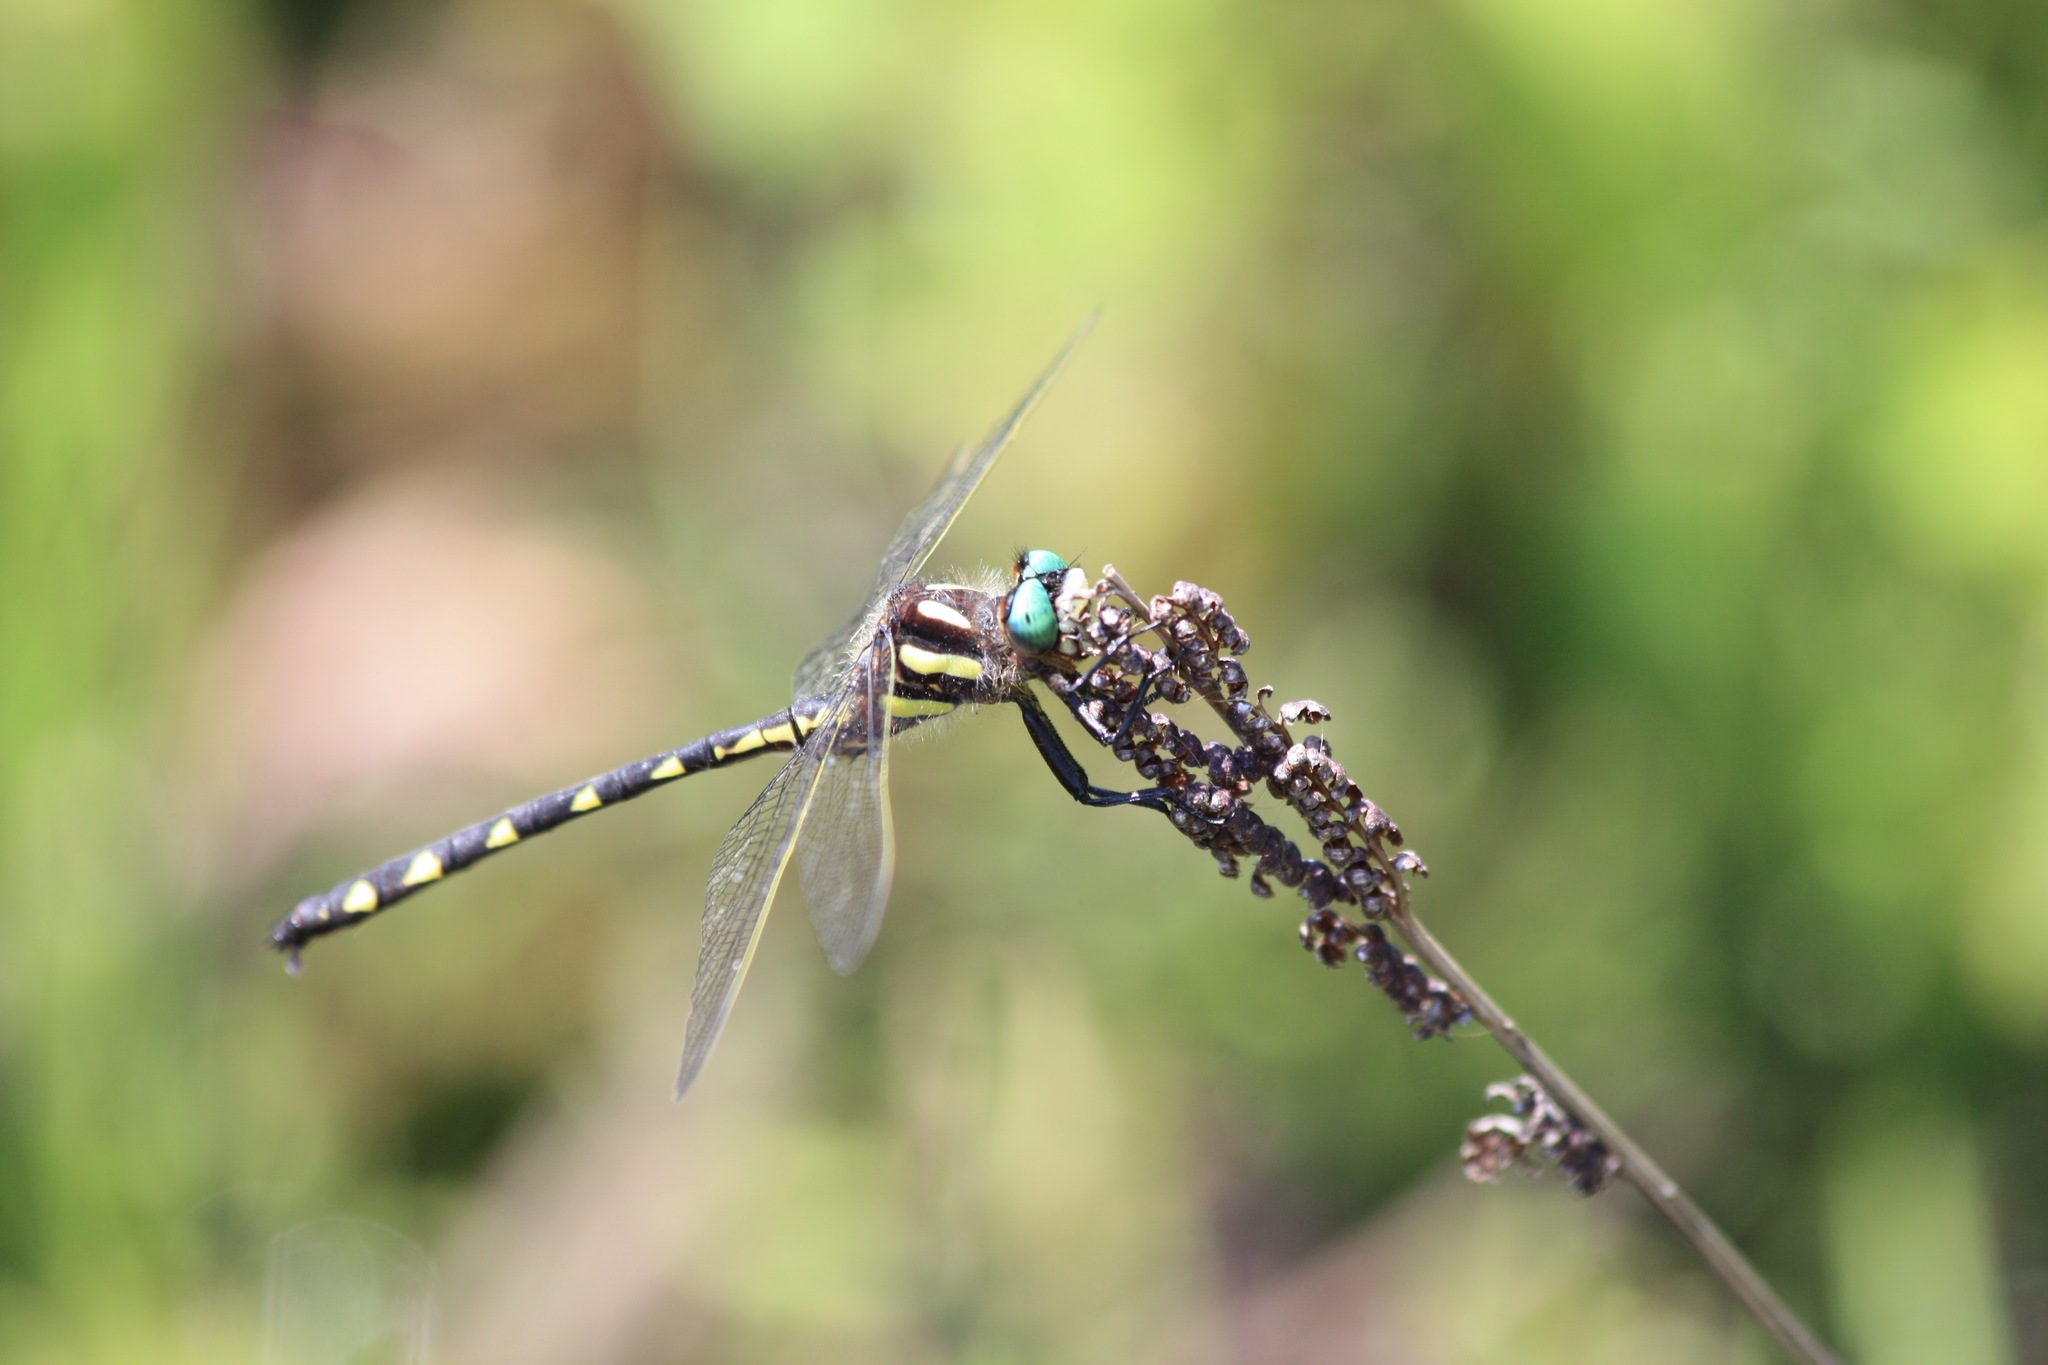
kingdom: Animalia
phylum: Arthropoda
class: Insecta
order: Odonata
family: Cordulegastridae
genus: Cordulegaster
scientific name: Cordulegaster diastatops
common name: Delta-spotted spiketail
